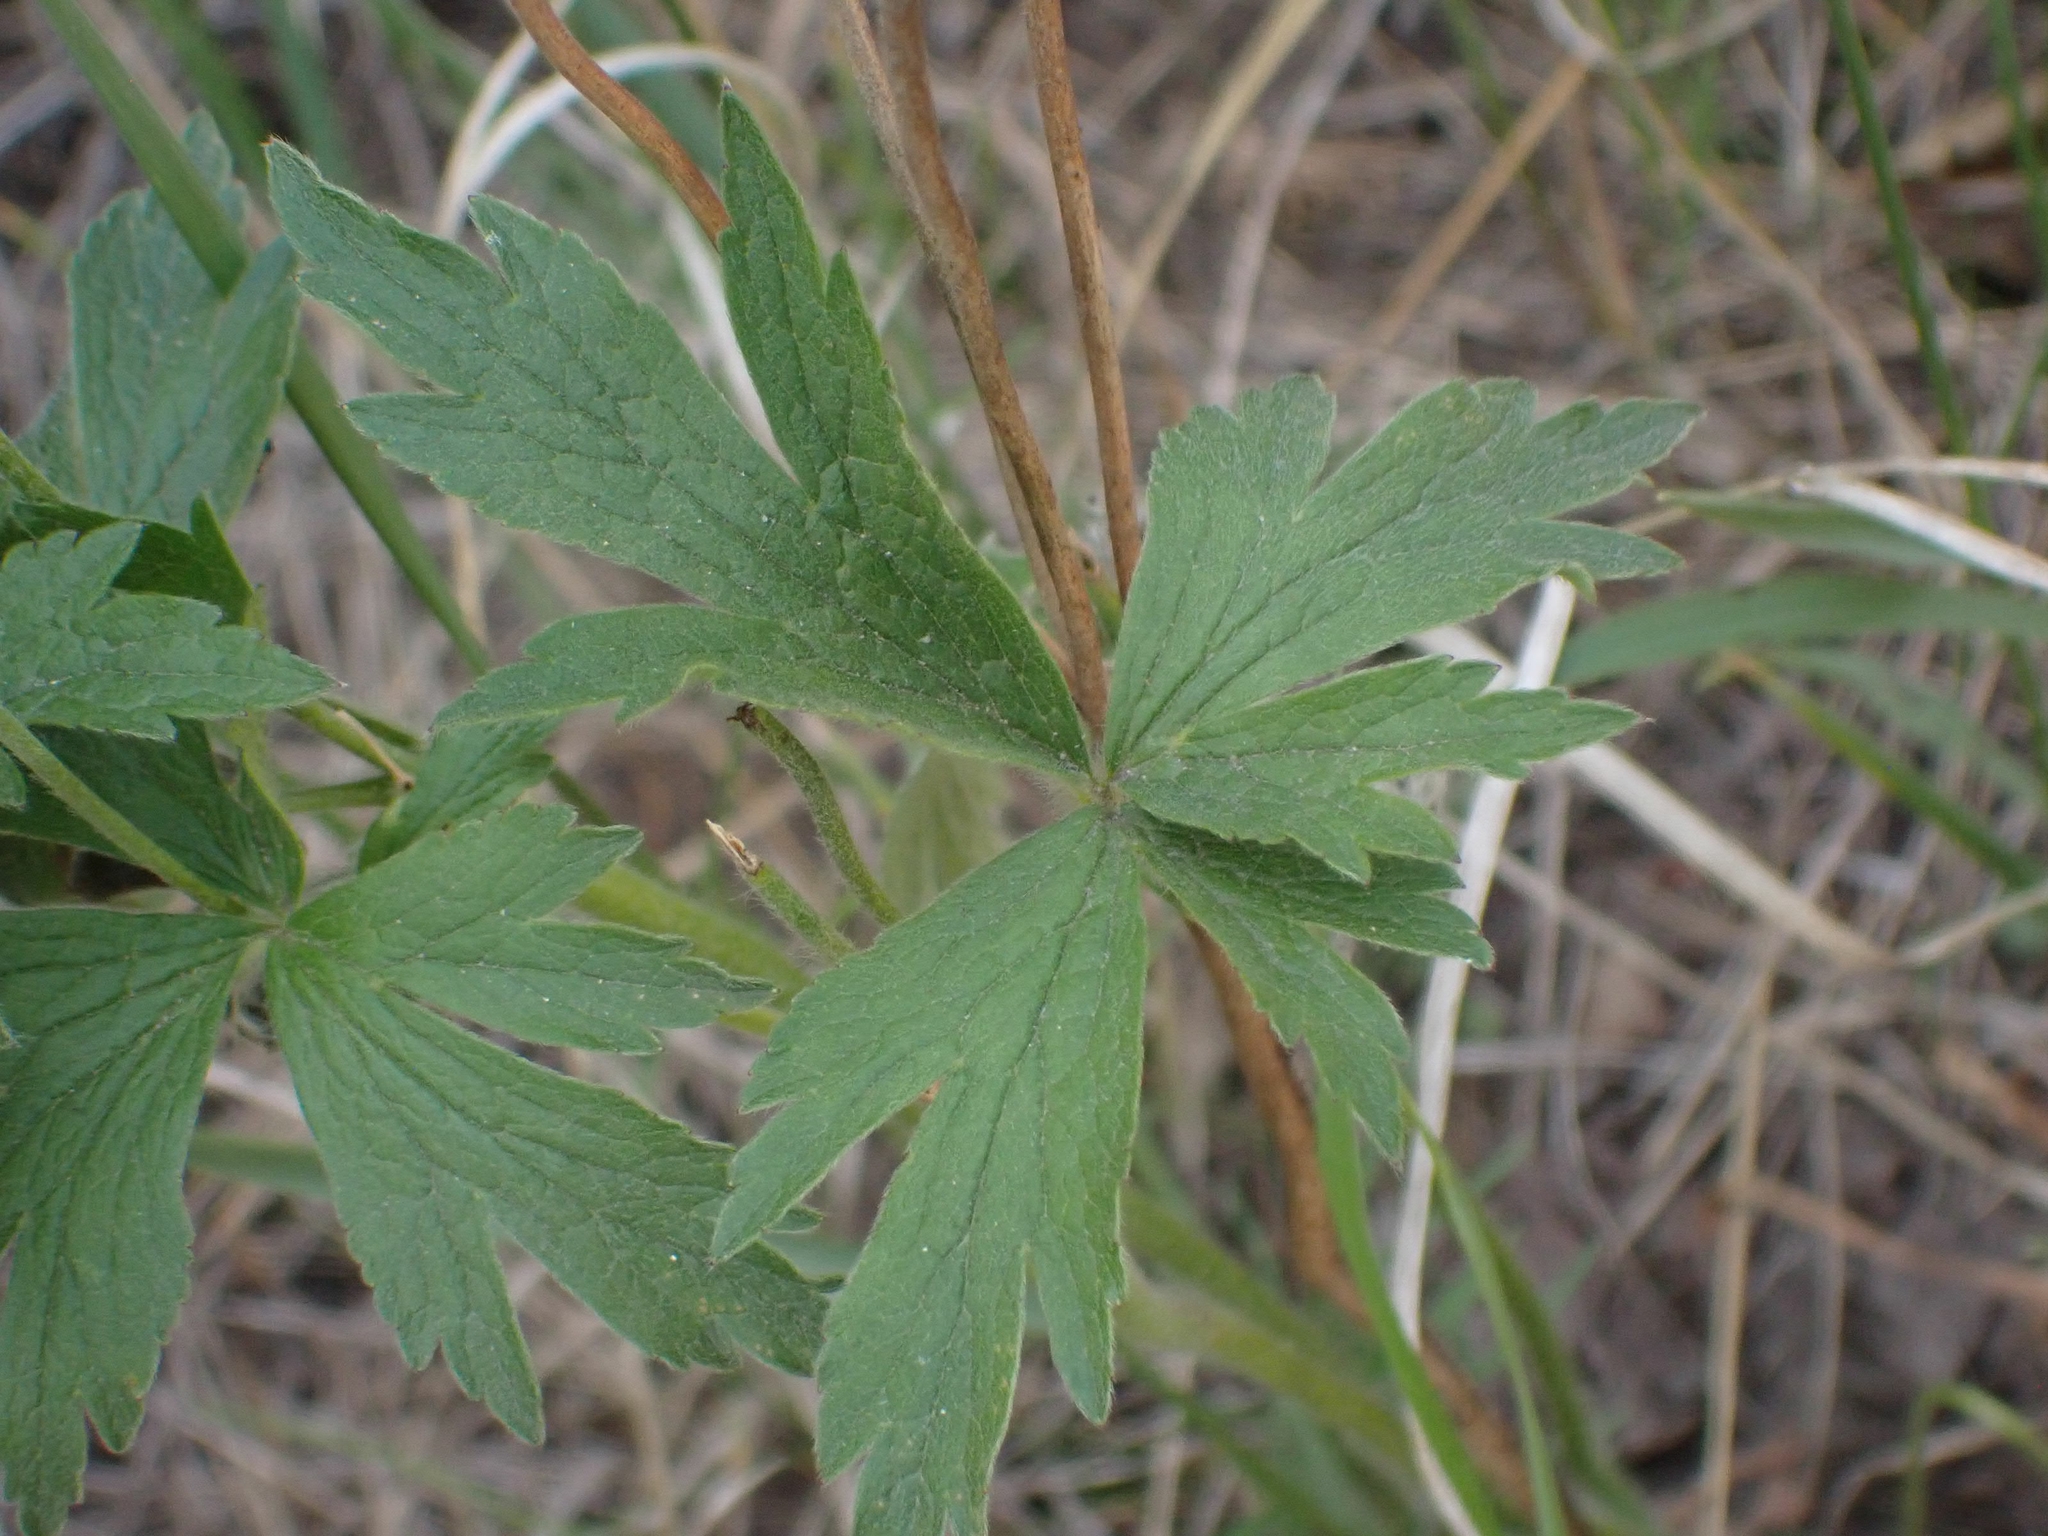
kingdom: Plantae
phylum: Tracheophyta
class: Magnoliopsida
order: Ranunculales
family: Ranunculaceae
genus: Anemone
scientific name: Anemone cylindrica
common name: Candle anemone
